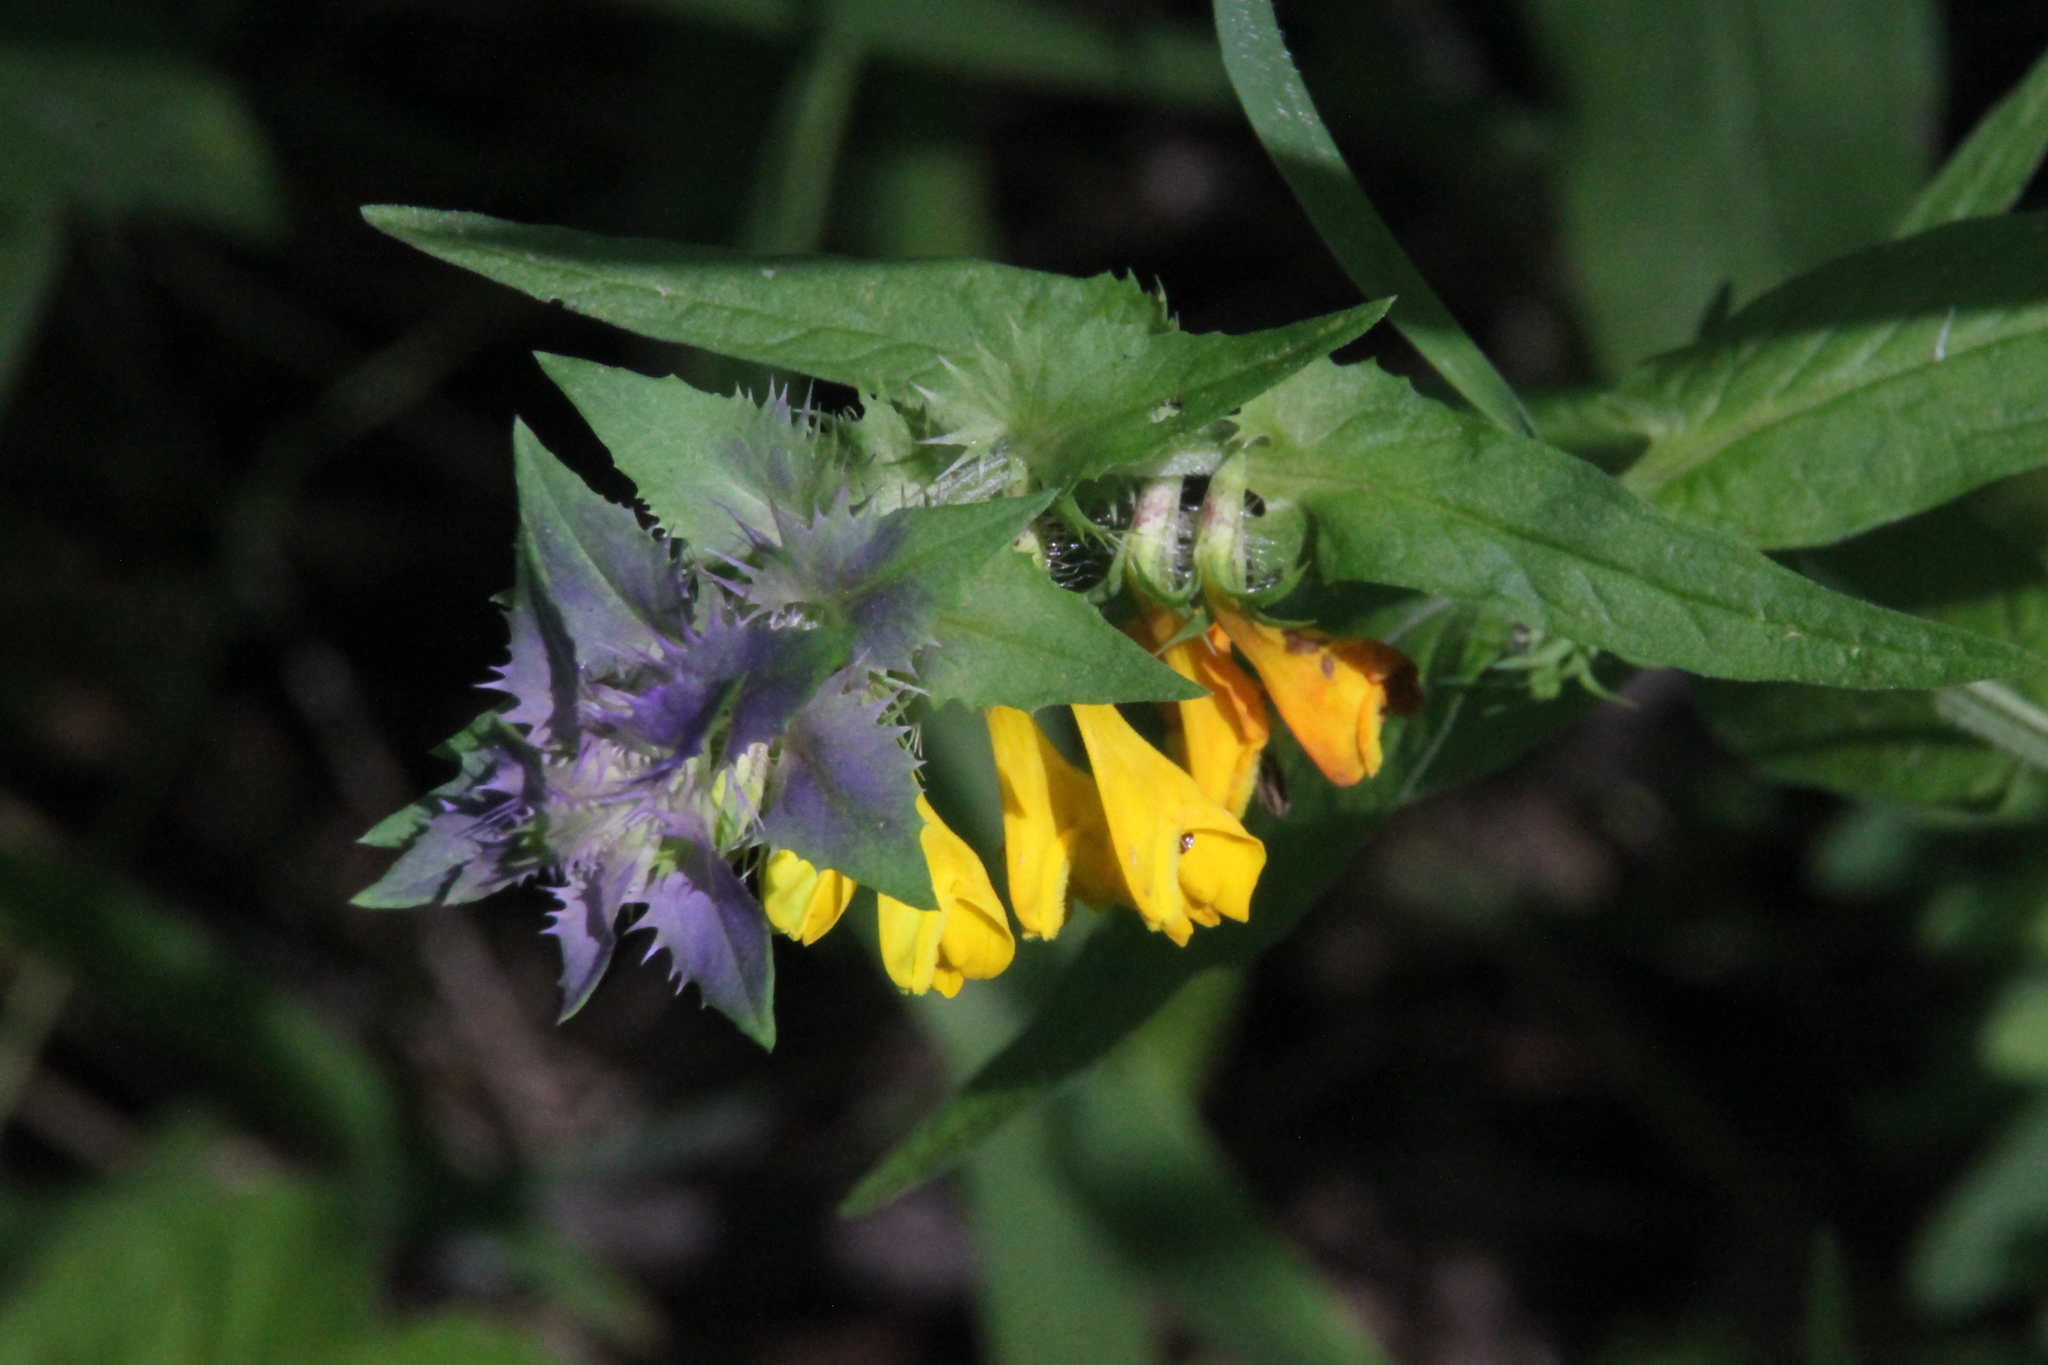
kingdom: Plantae
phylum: Tracheophyta
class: Magnoliopsida
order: Lamiales
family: Orobanchaceae
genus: Melampyrum
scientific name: Melampyrum nemorosum
